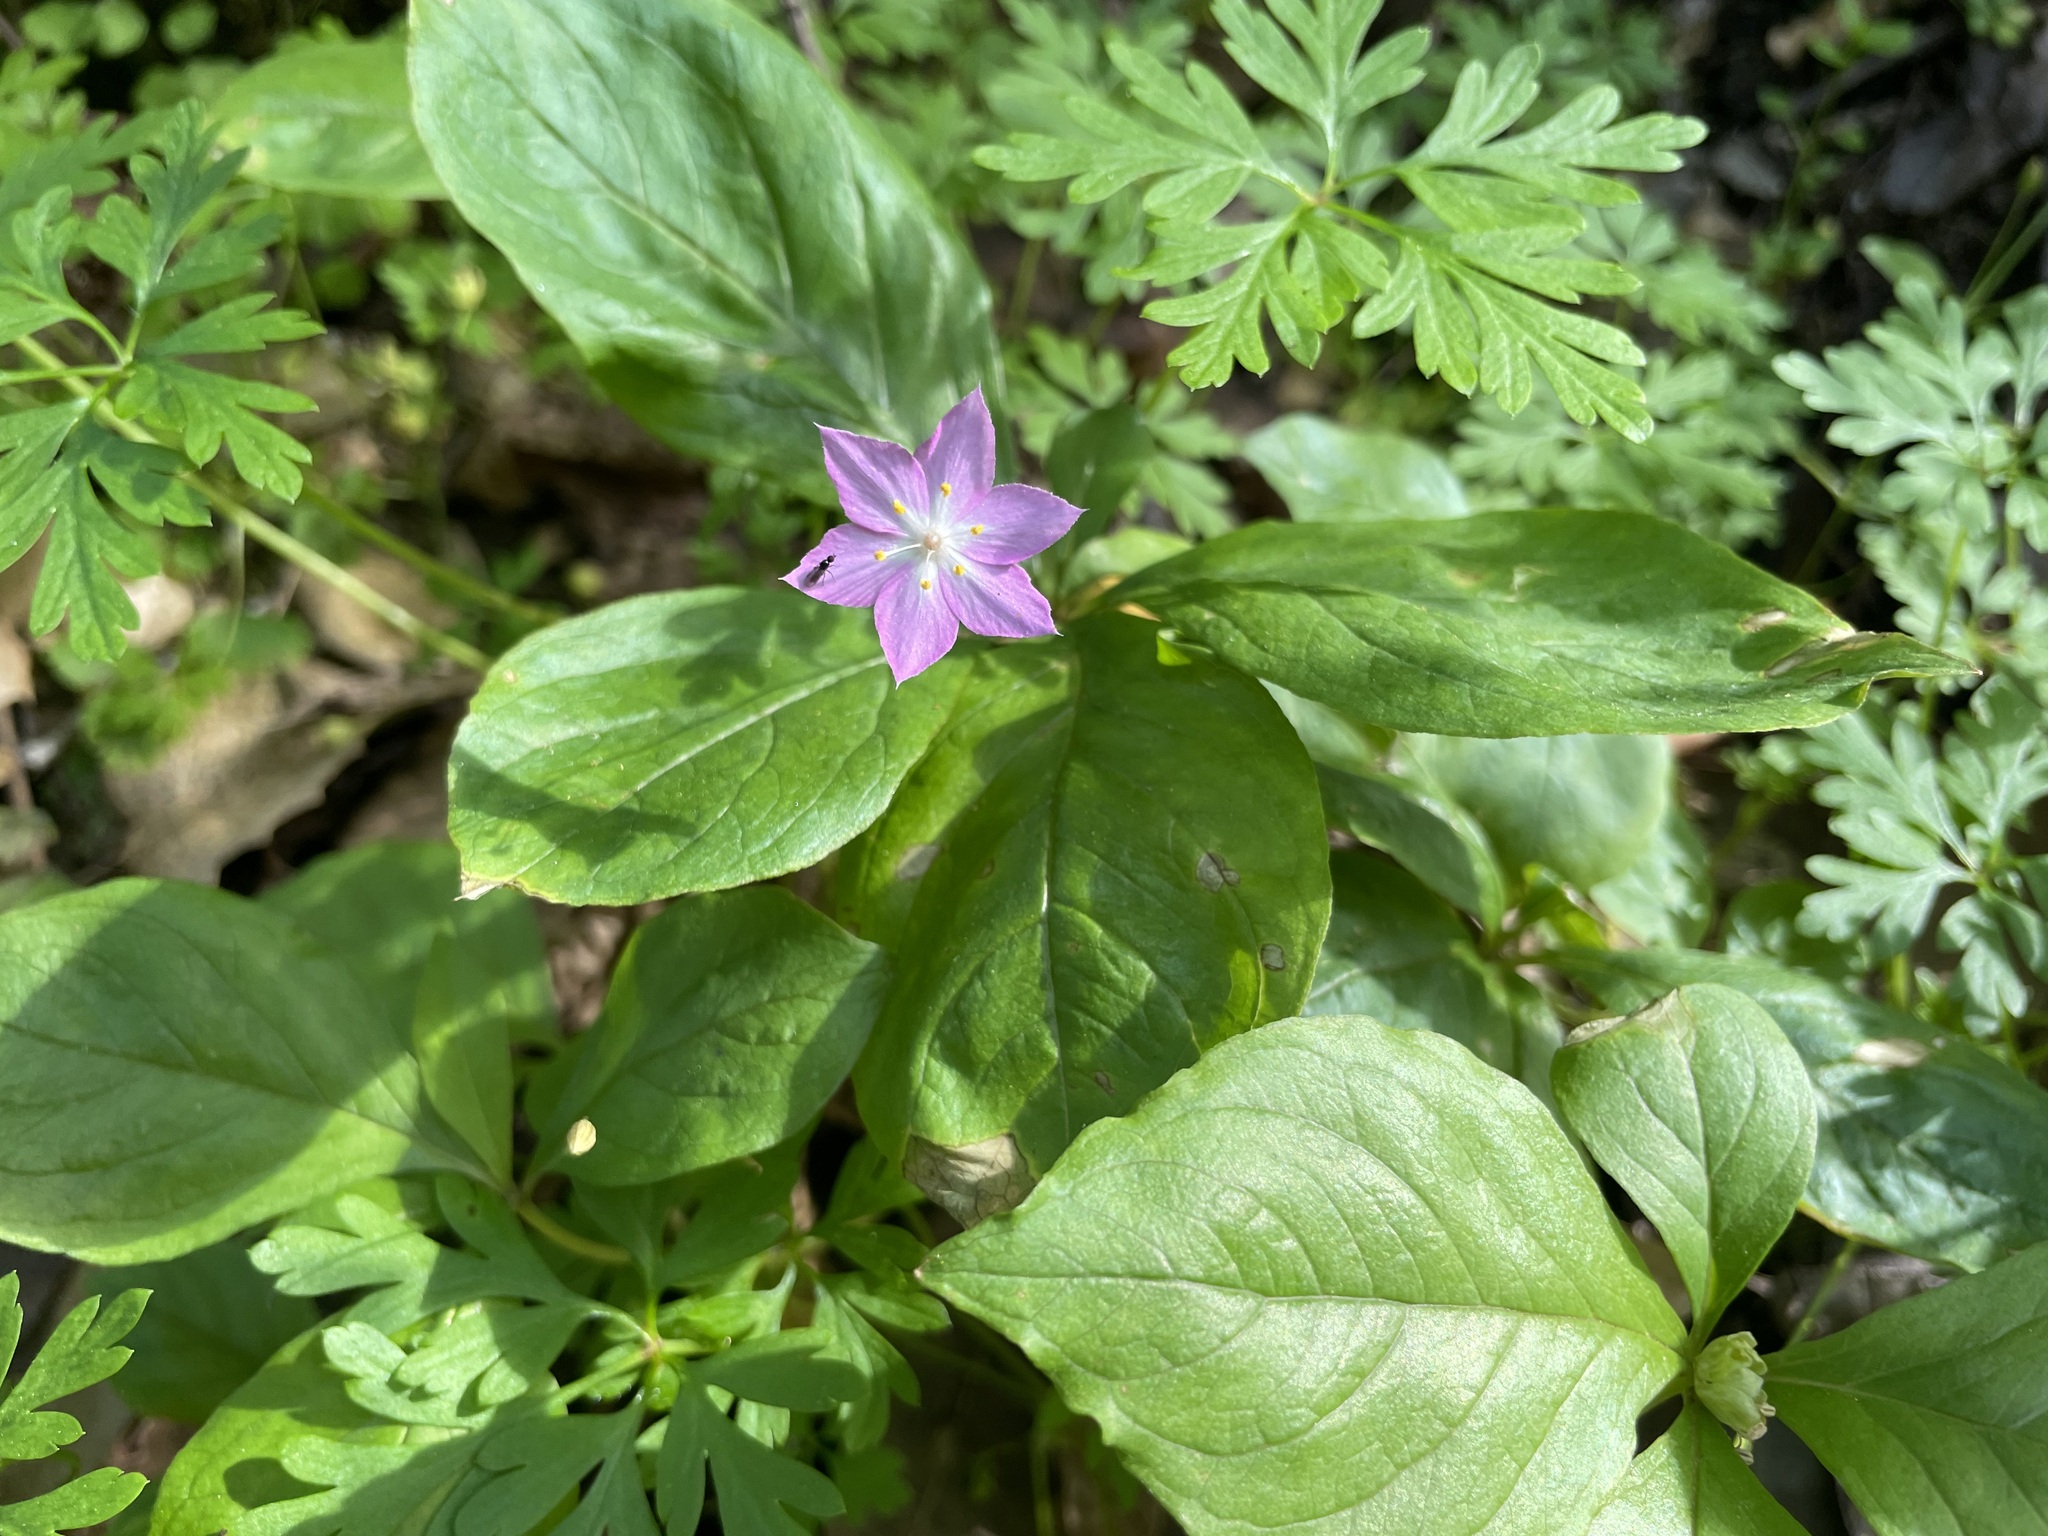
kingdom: Plantae
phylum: Tracheophyta
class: Magnoliopsida
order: Ericales
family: Primulaceae
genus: Lysimachia
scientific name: Lysimachia latifolia
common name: Pacific starflower
